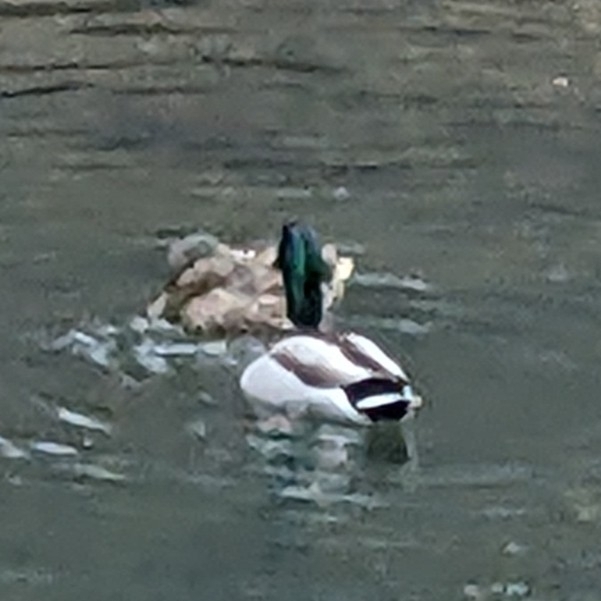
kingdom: Animalia
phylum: Chordata
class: Aves
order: Anseriformes
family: Anatidae
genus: Anas
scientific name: Anas platyrhynchos
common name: Mallard
